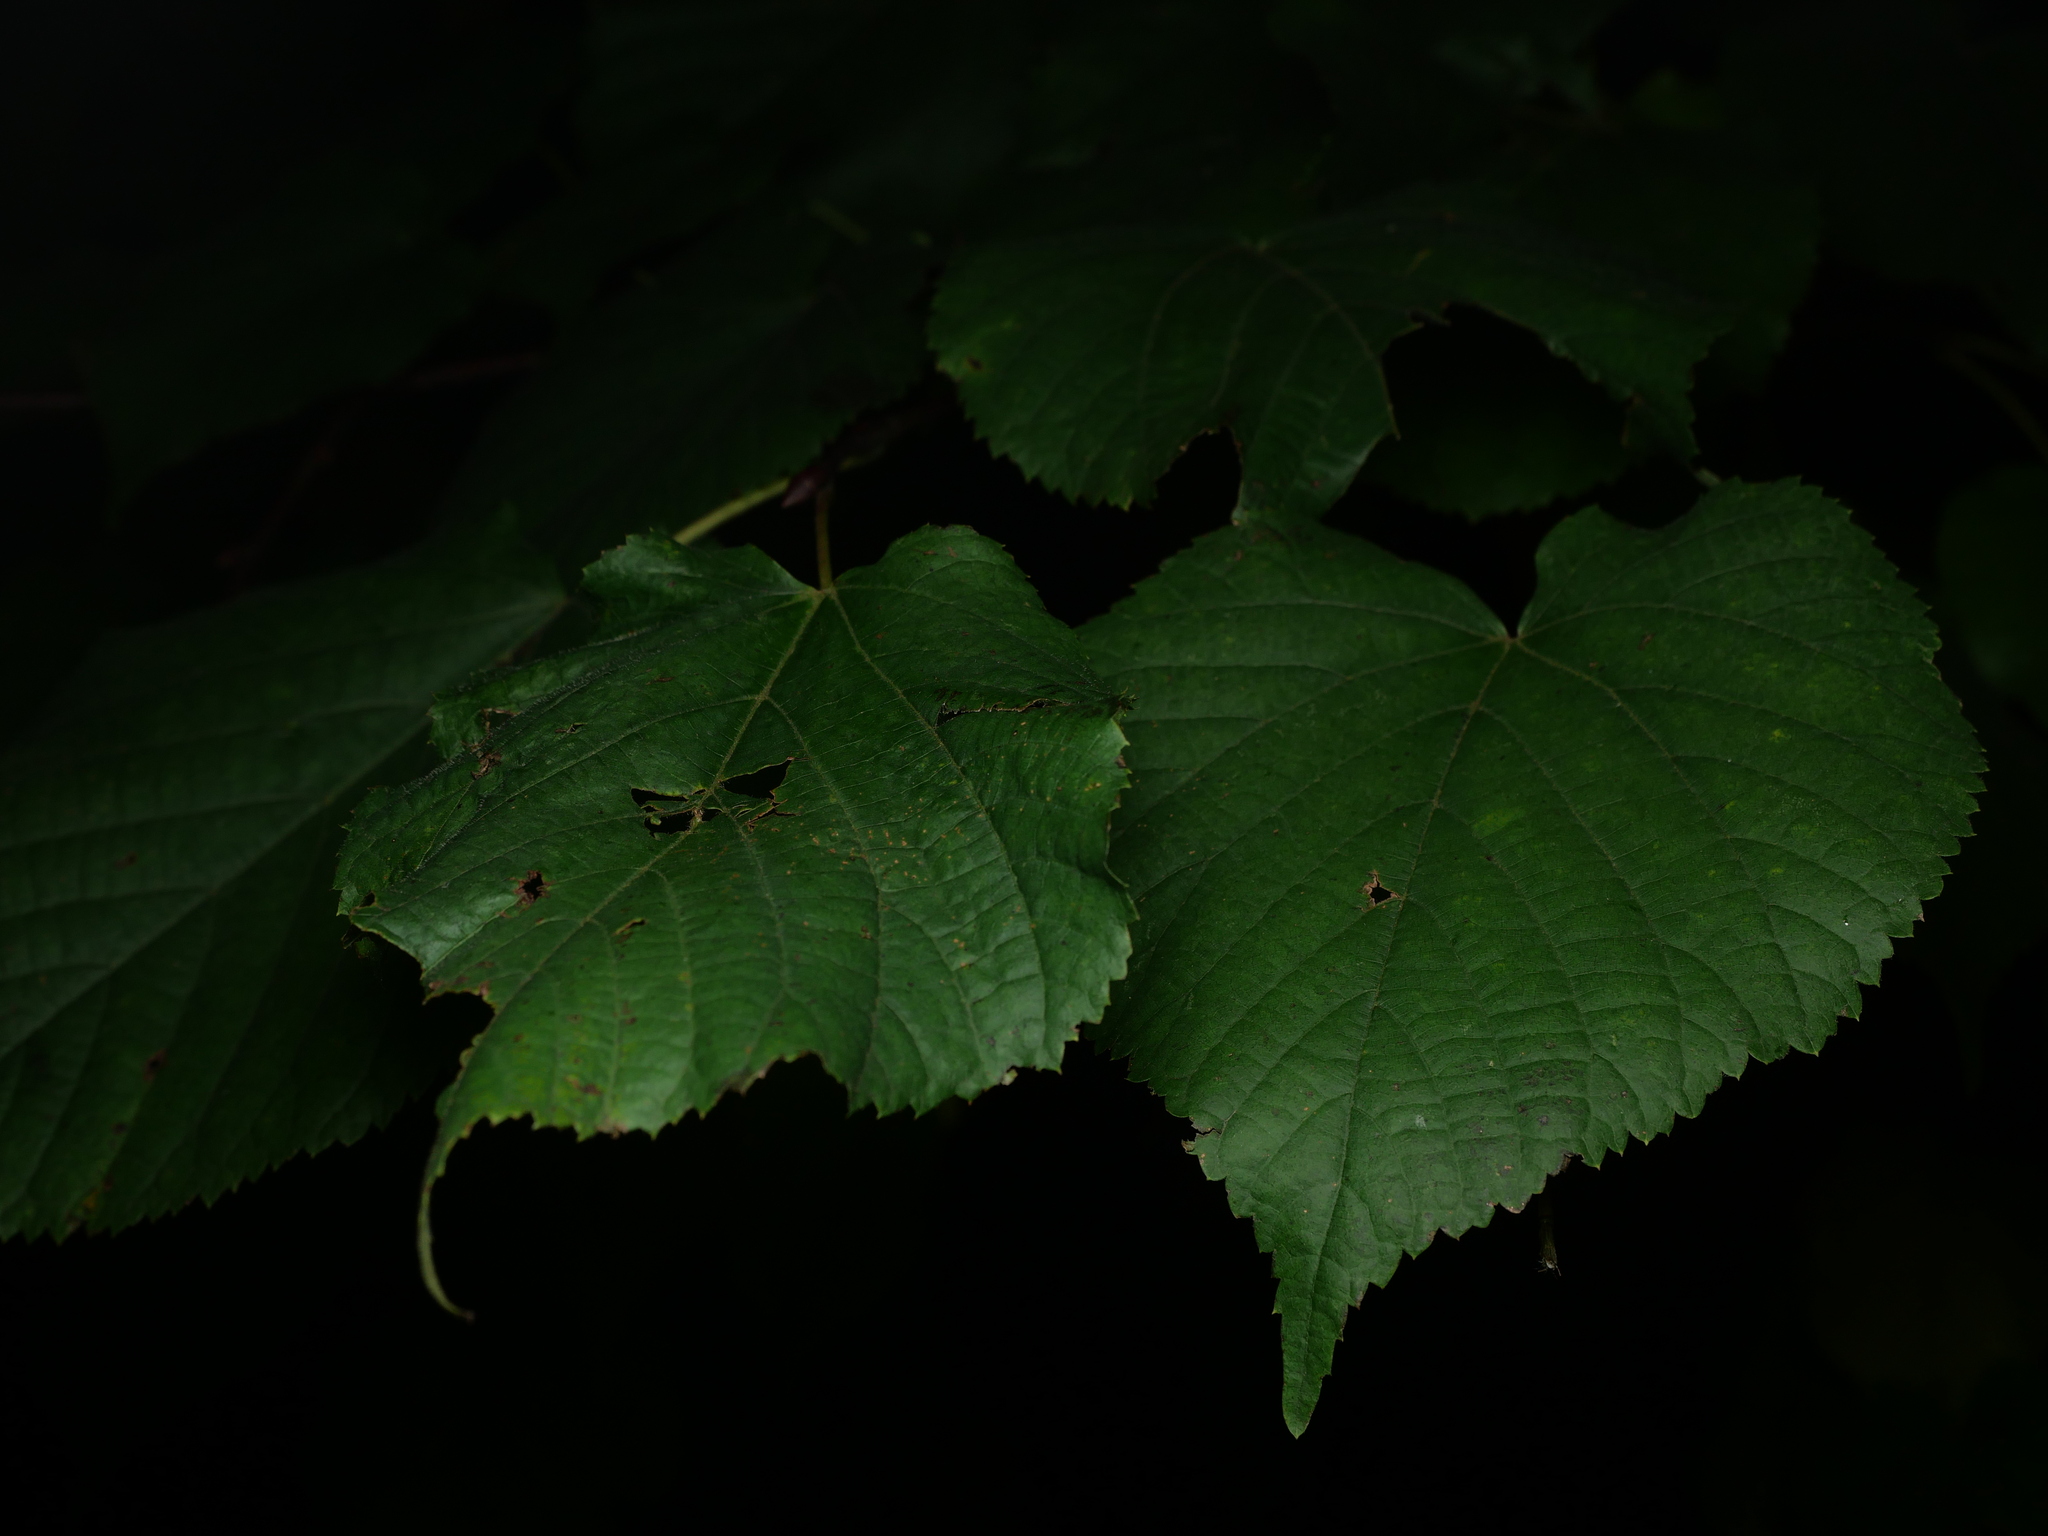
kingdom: Plantae
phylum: Tracheophyta
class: Magnoliopsida
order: Malvales
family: Malvaceae
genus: Tilia
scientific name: Tilia platyphyllos
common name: Large-leaved lime
